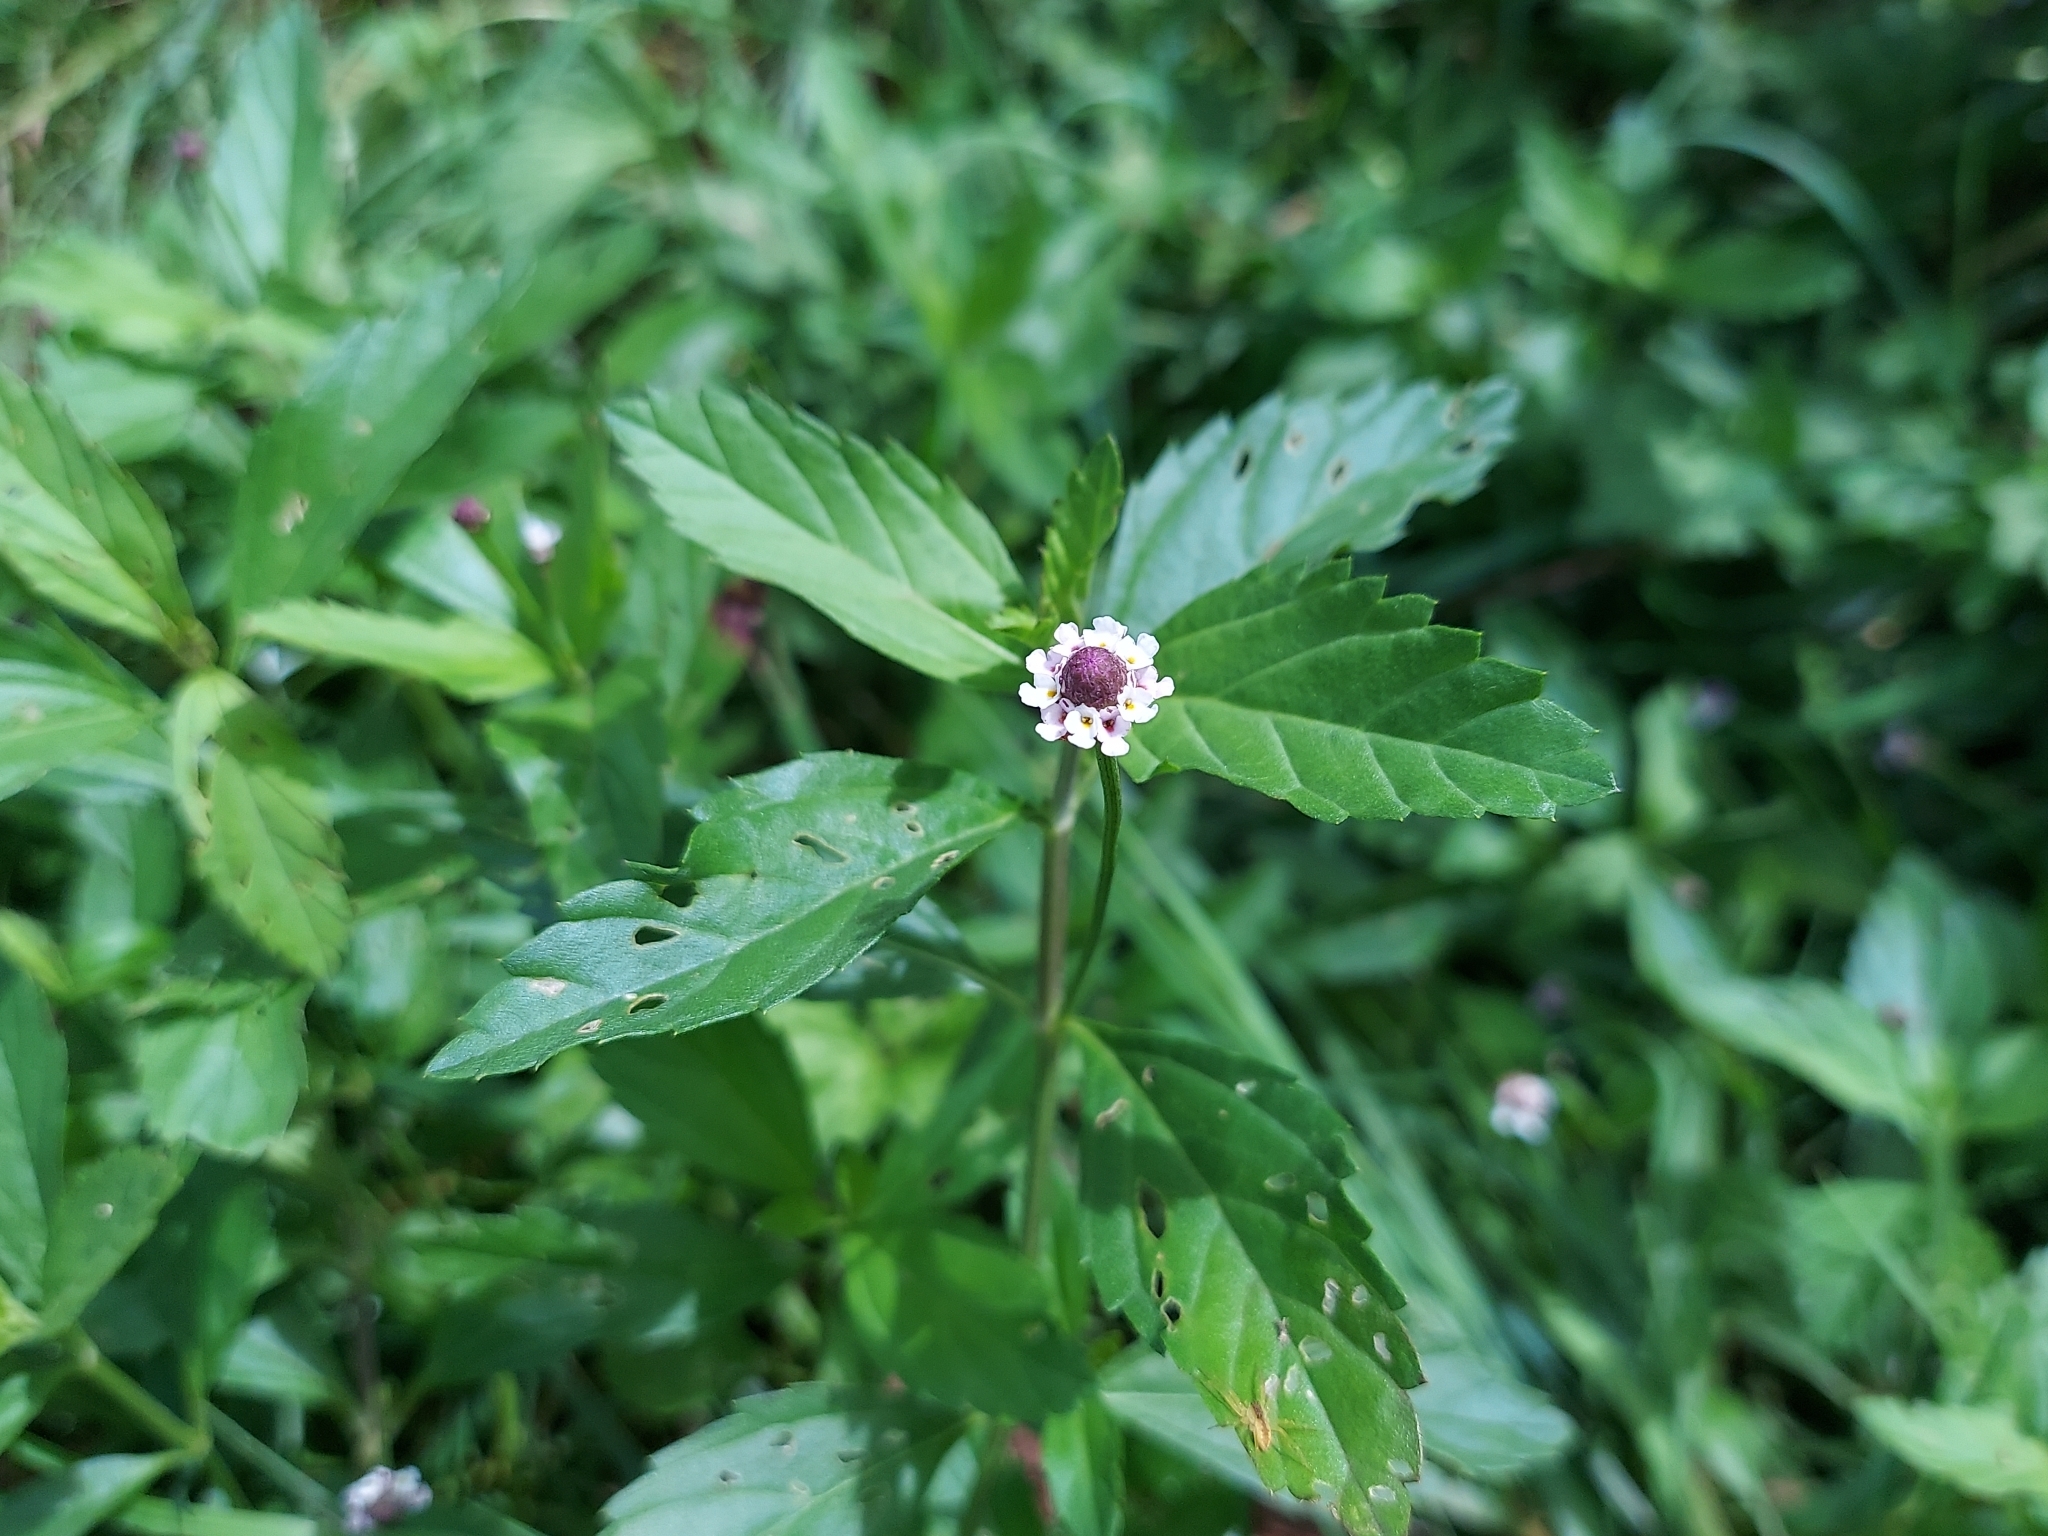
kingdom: Plantae
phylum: Tracheophyta
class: Magnoliopsida
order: Lamiales
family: Verbenaceae
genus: Phyla
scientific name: Phyla lanceolata
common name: Northern fogfruit
